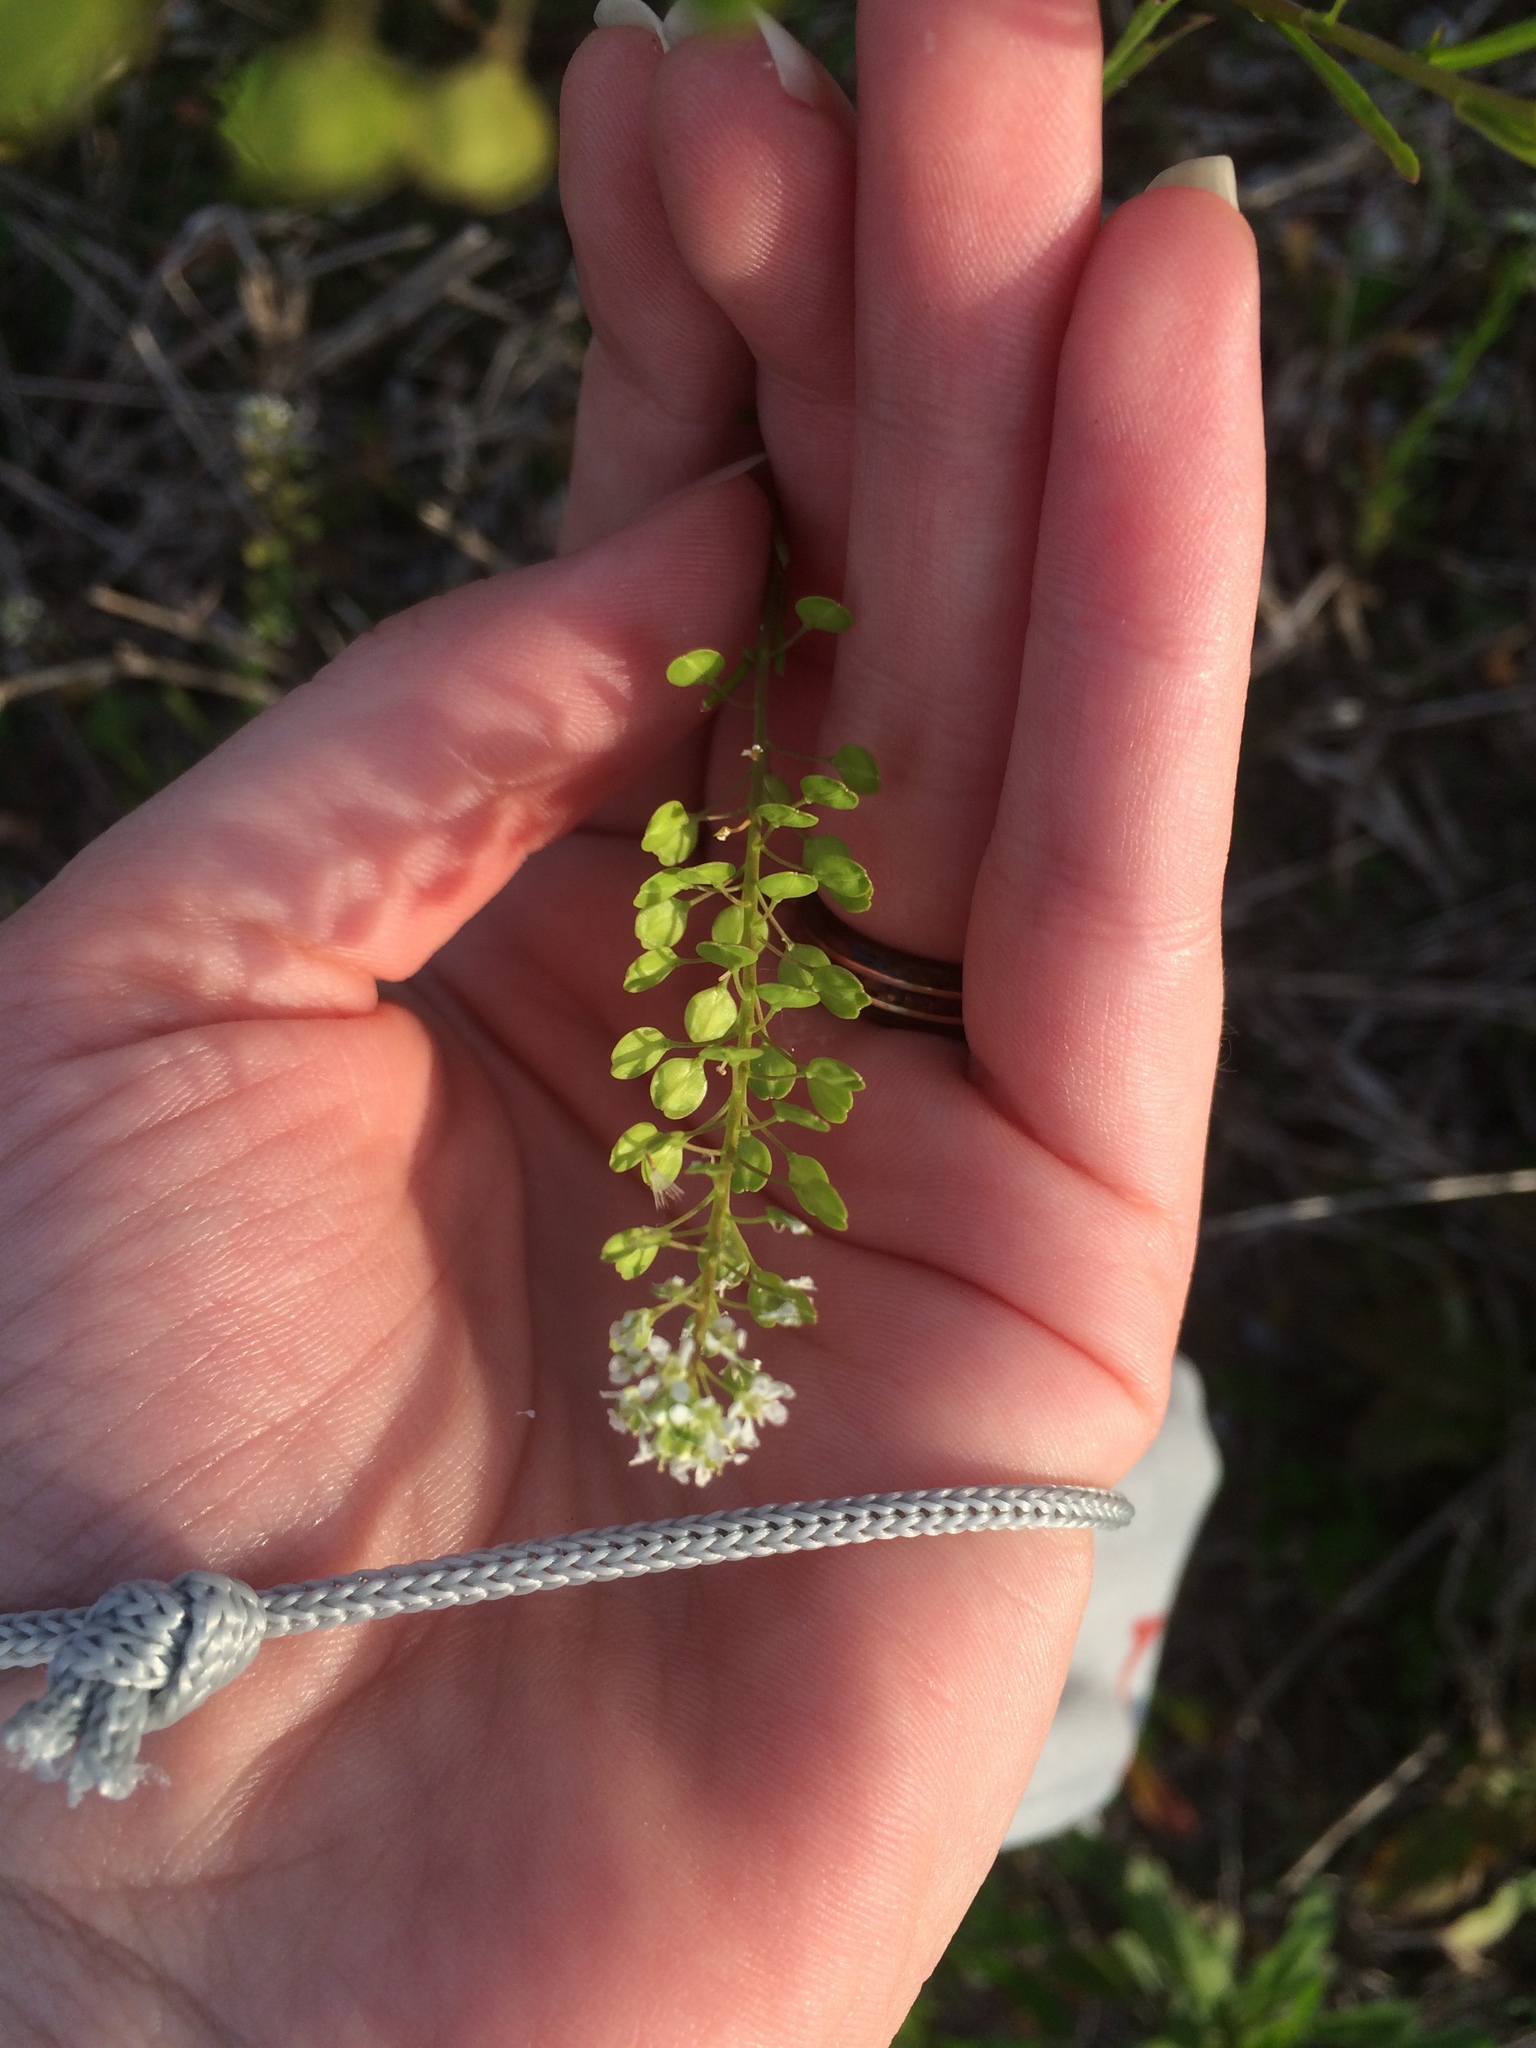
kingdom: Plantae
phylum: Tracheophyta
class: Magnoliopsida
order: Brassicales
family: Brassicaceae
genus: Lepidium
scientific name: Lepidium virginicum
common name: Least pepperwort
